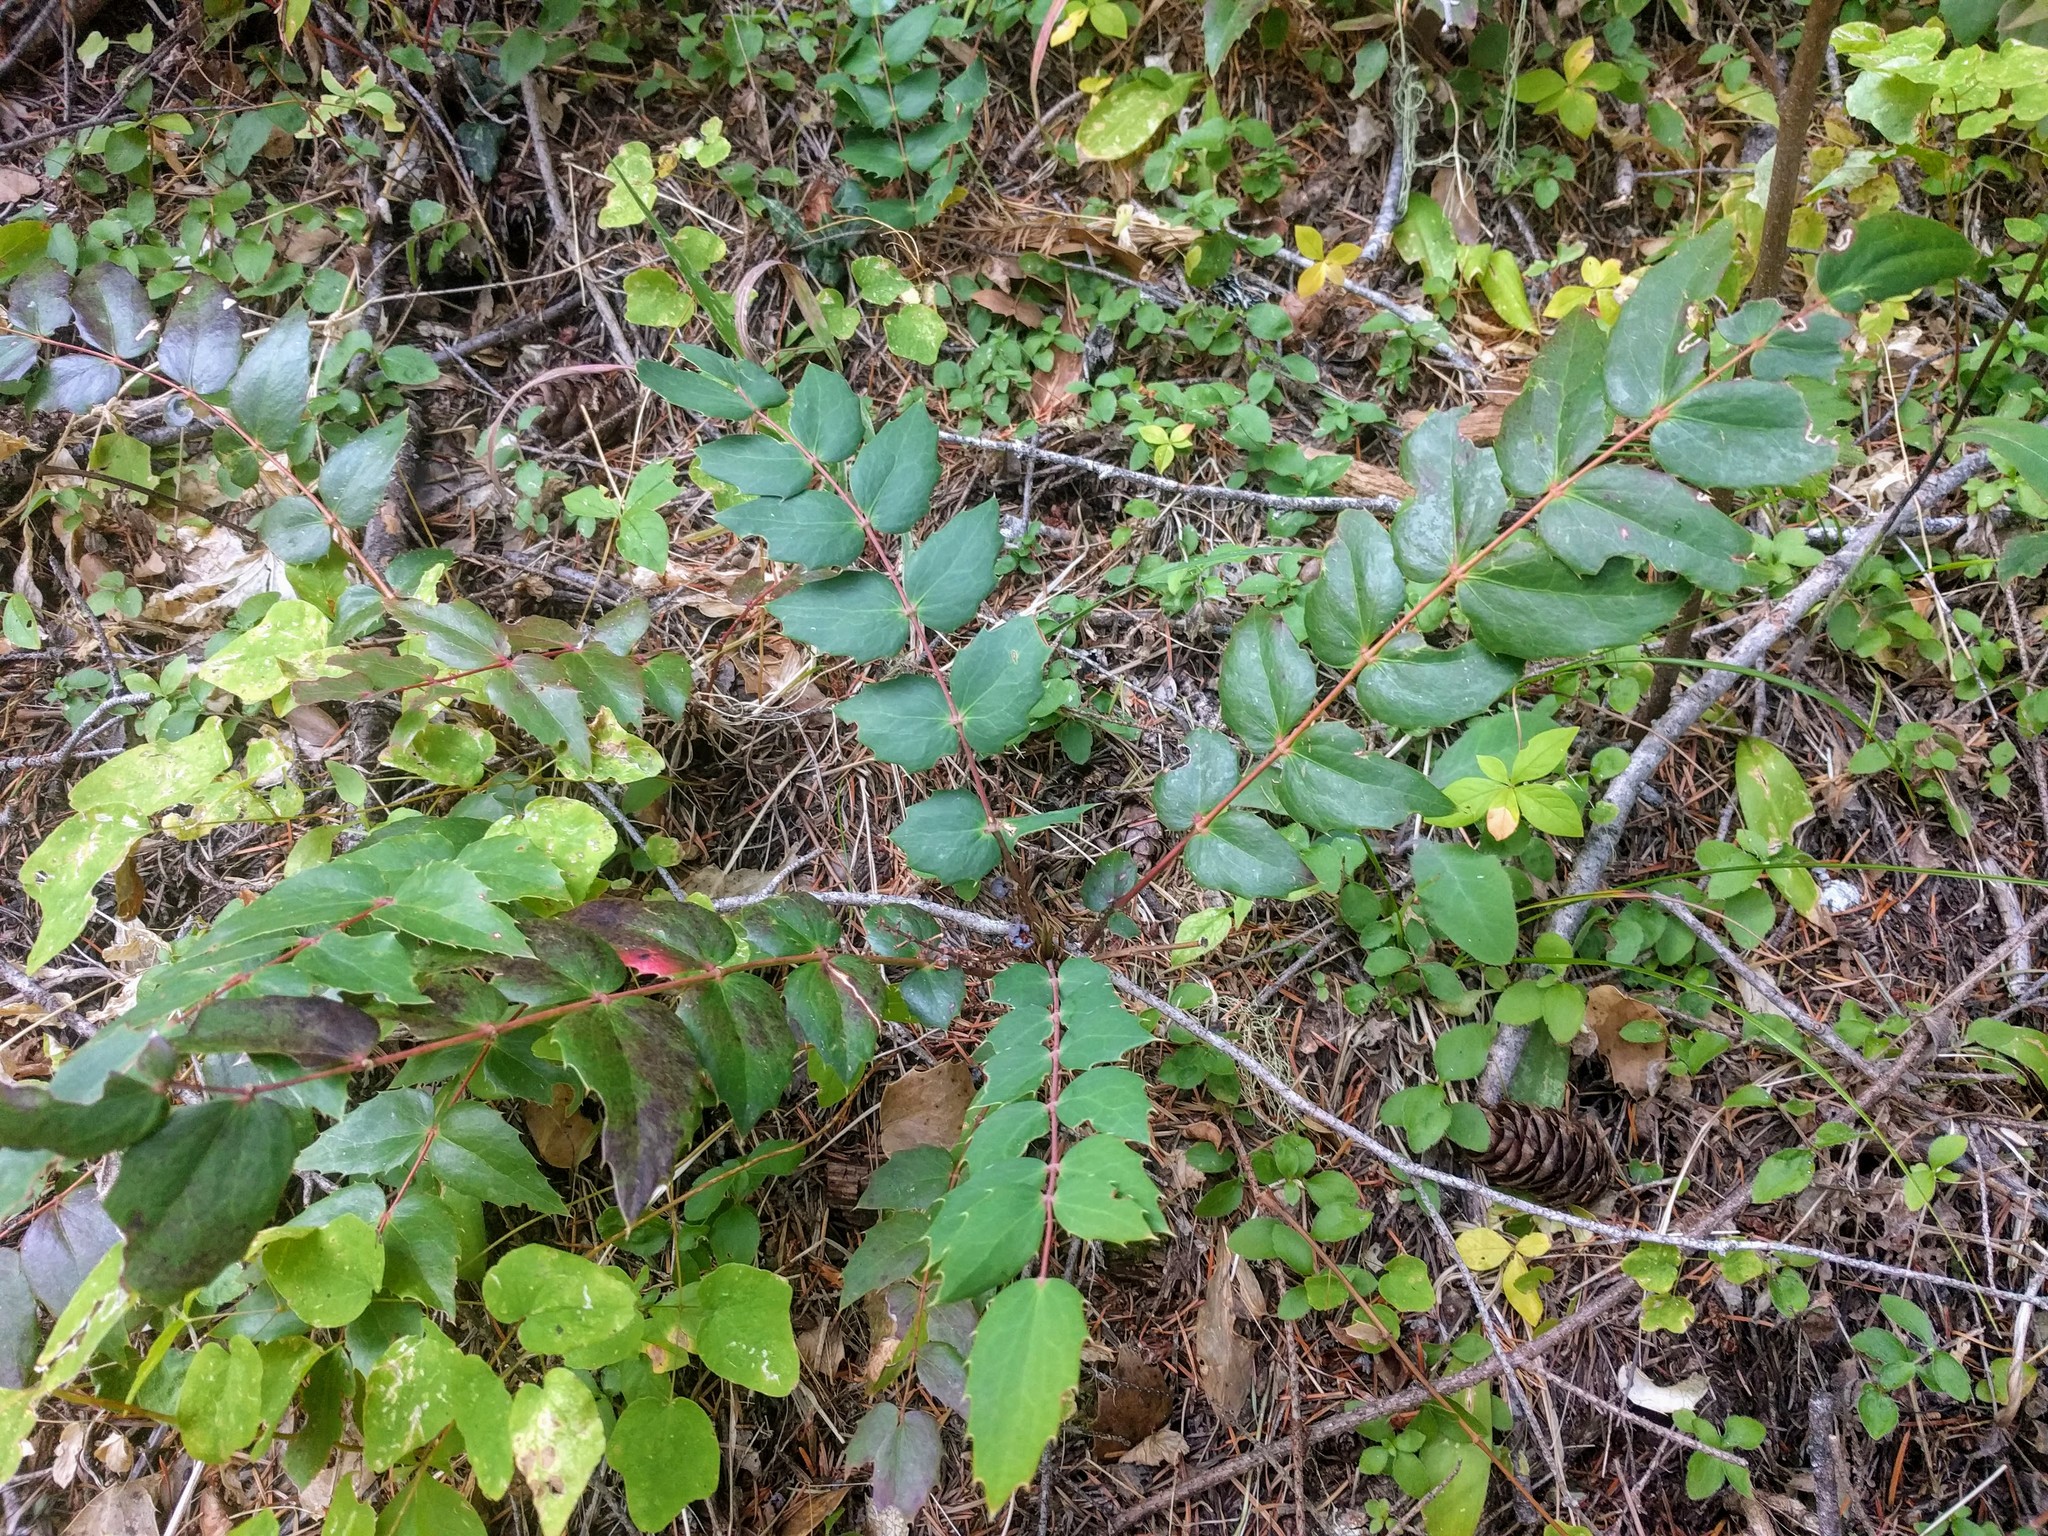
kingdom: Plantae
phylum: Tracheophyta
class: Magnoliopsida
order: Ranunculales
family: Berberidaceae
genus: Mahonia
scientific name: Mahonia nervosa
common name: Cascade oregon-grape
